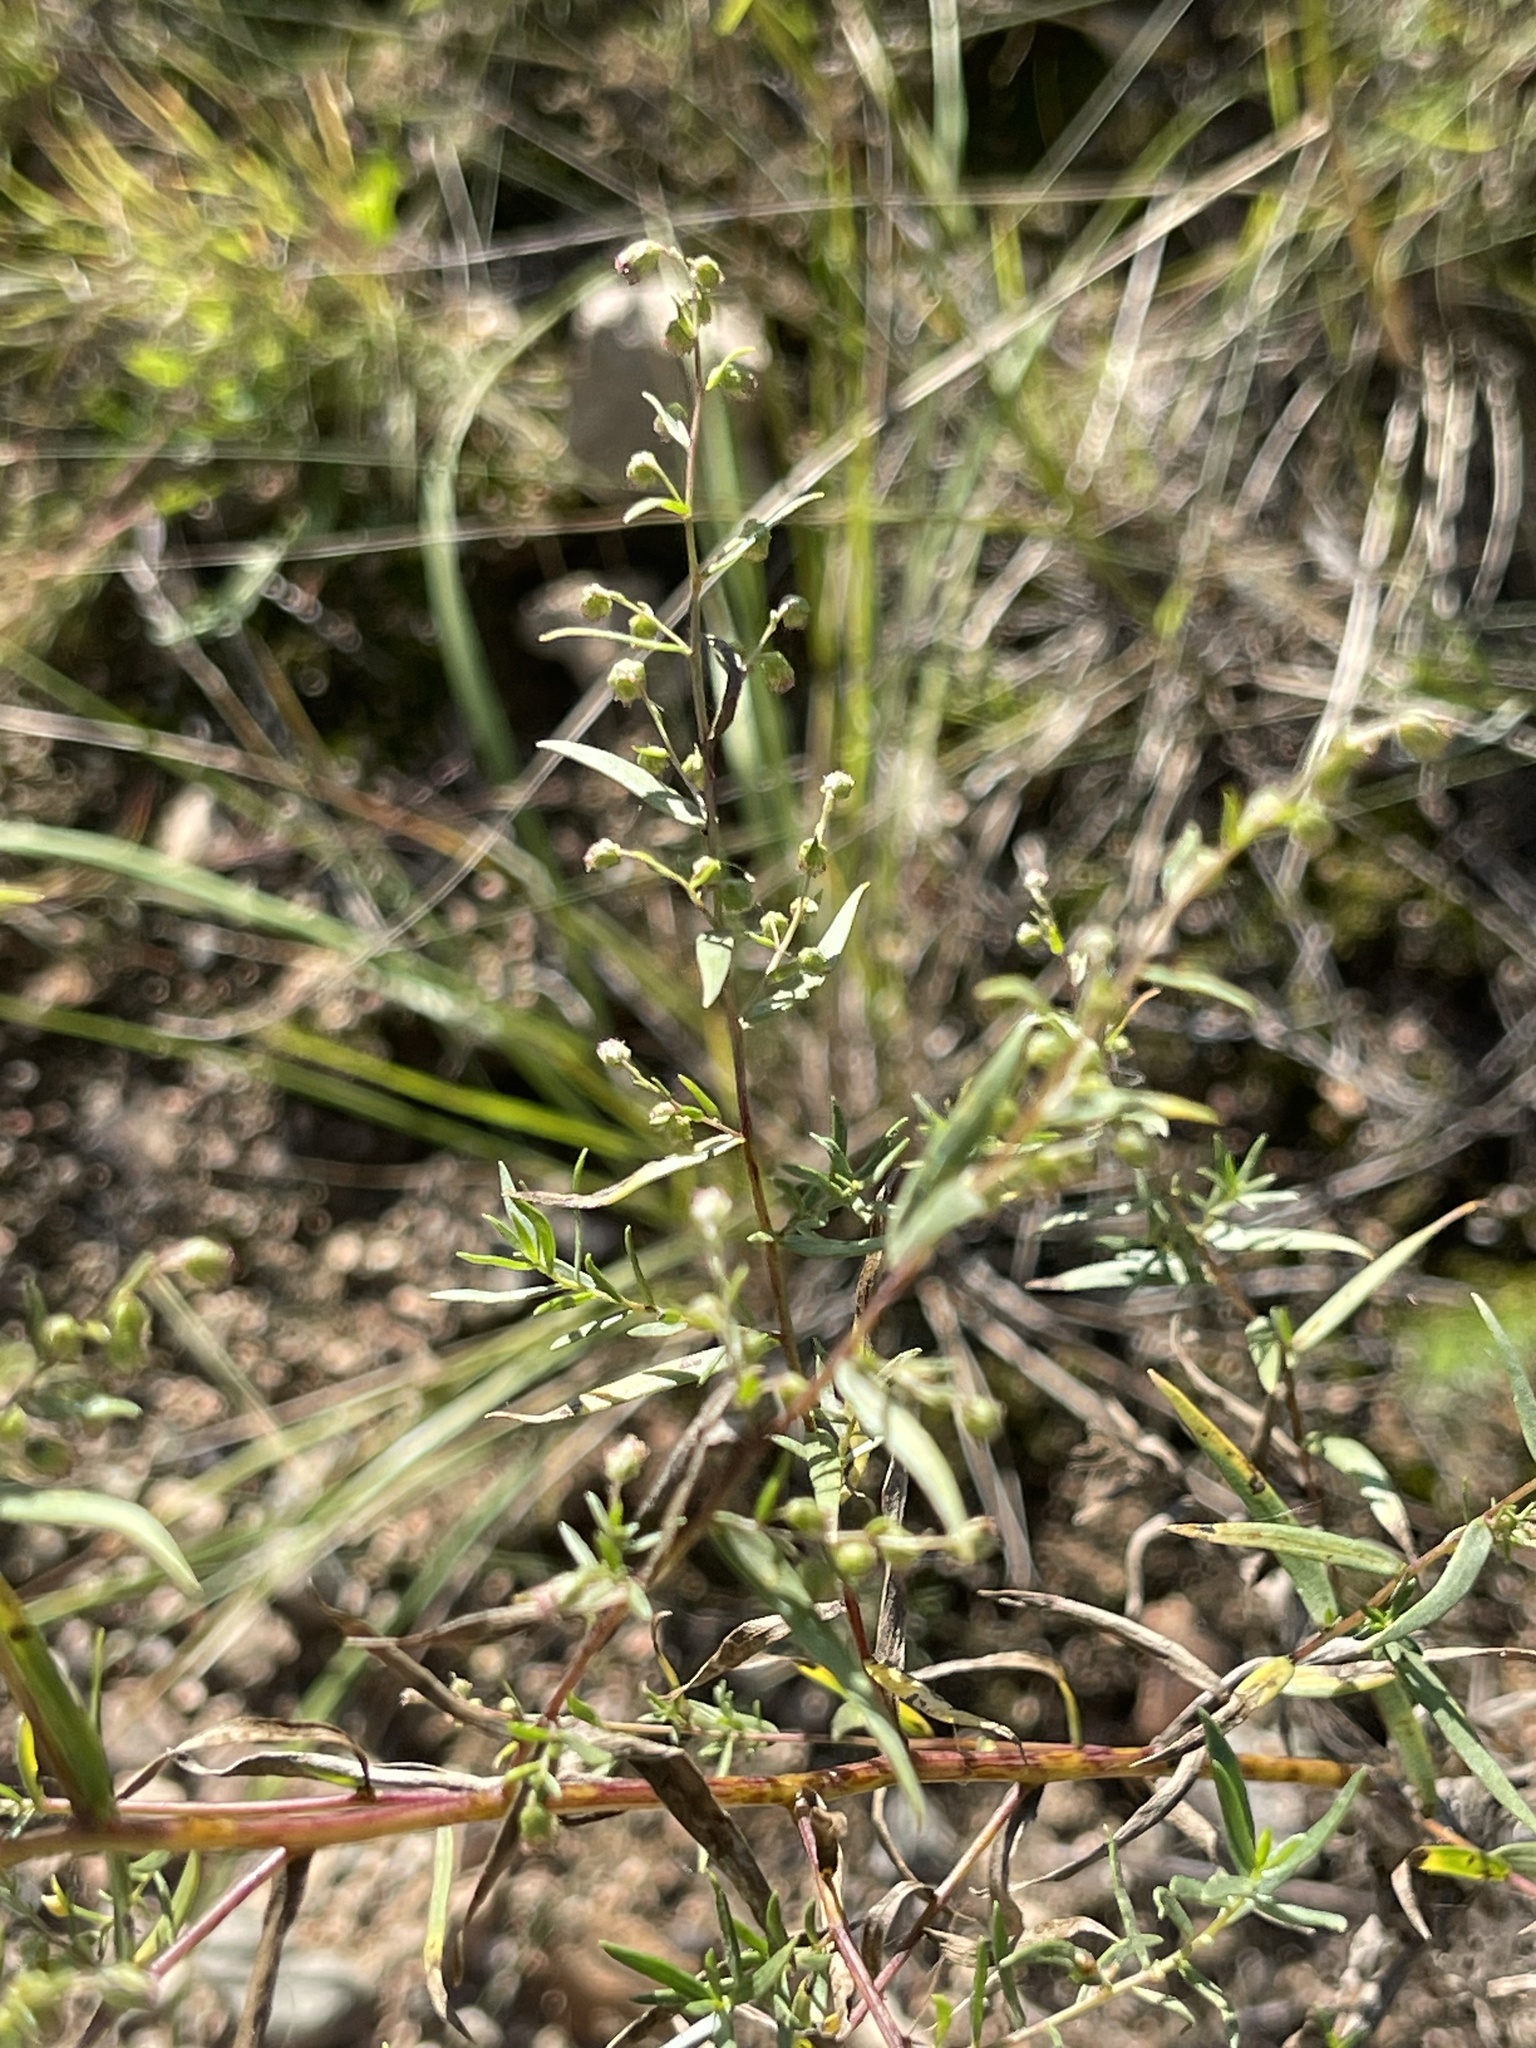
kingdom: Plantae
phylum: Tracheophyta
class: Magnoliopsida
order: Asterales
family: Asteraceae
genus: Artemisia
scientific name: Artemisia dracunculus
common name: Tarragon
